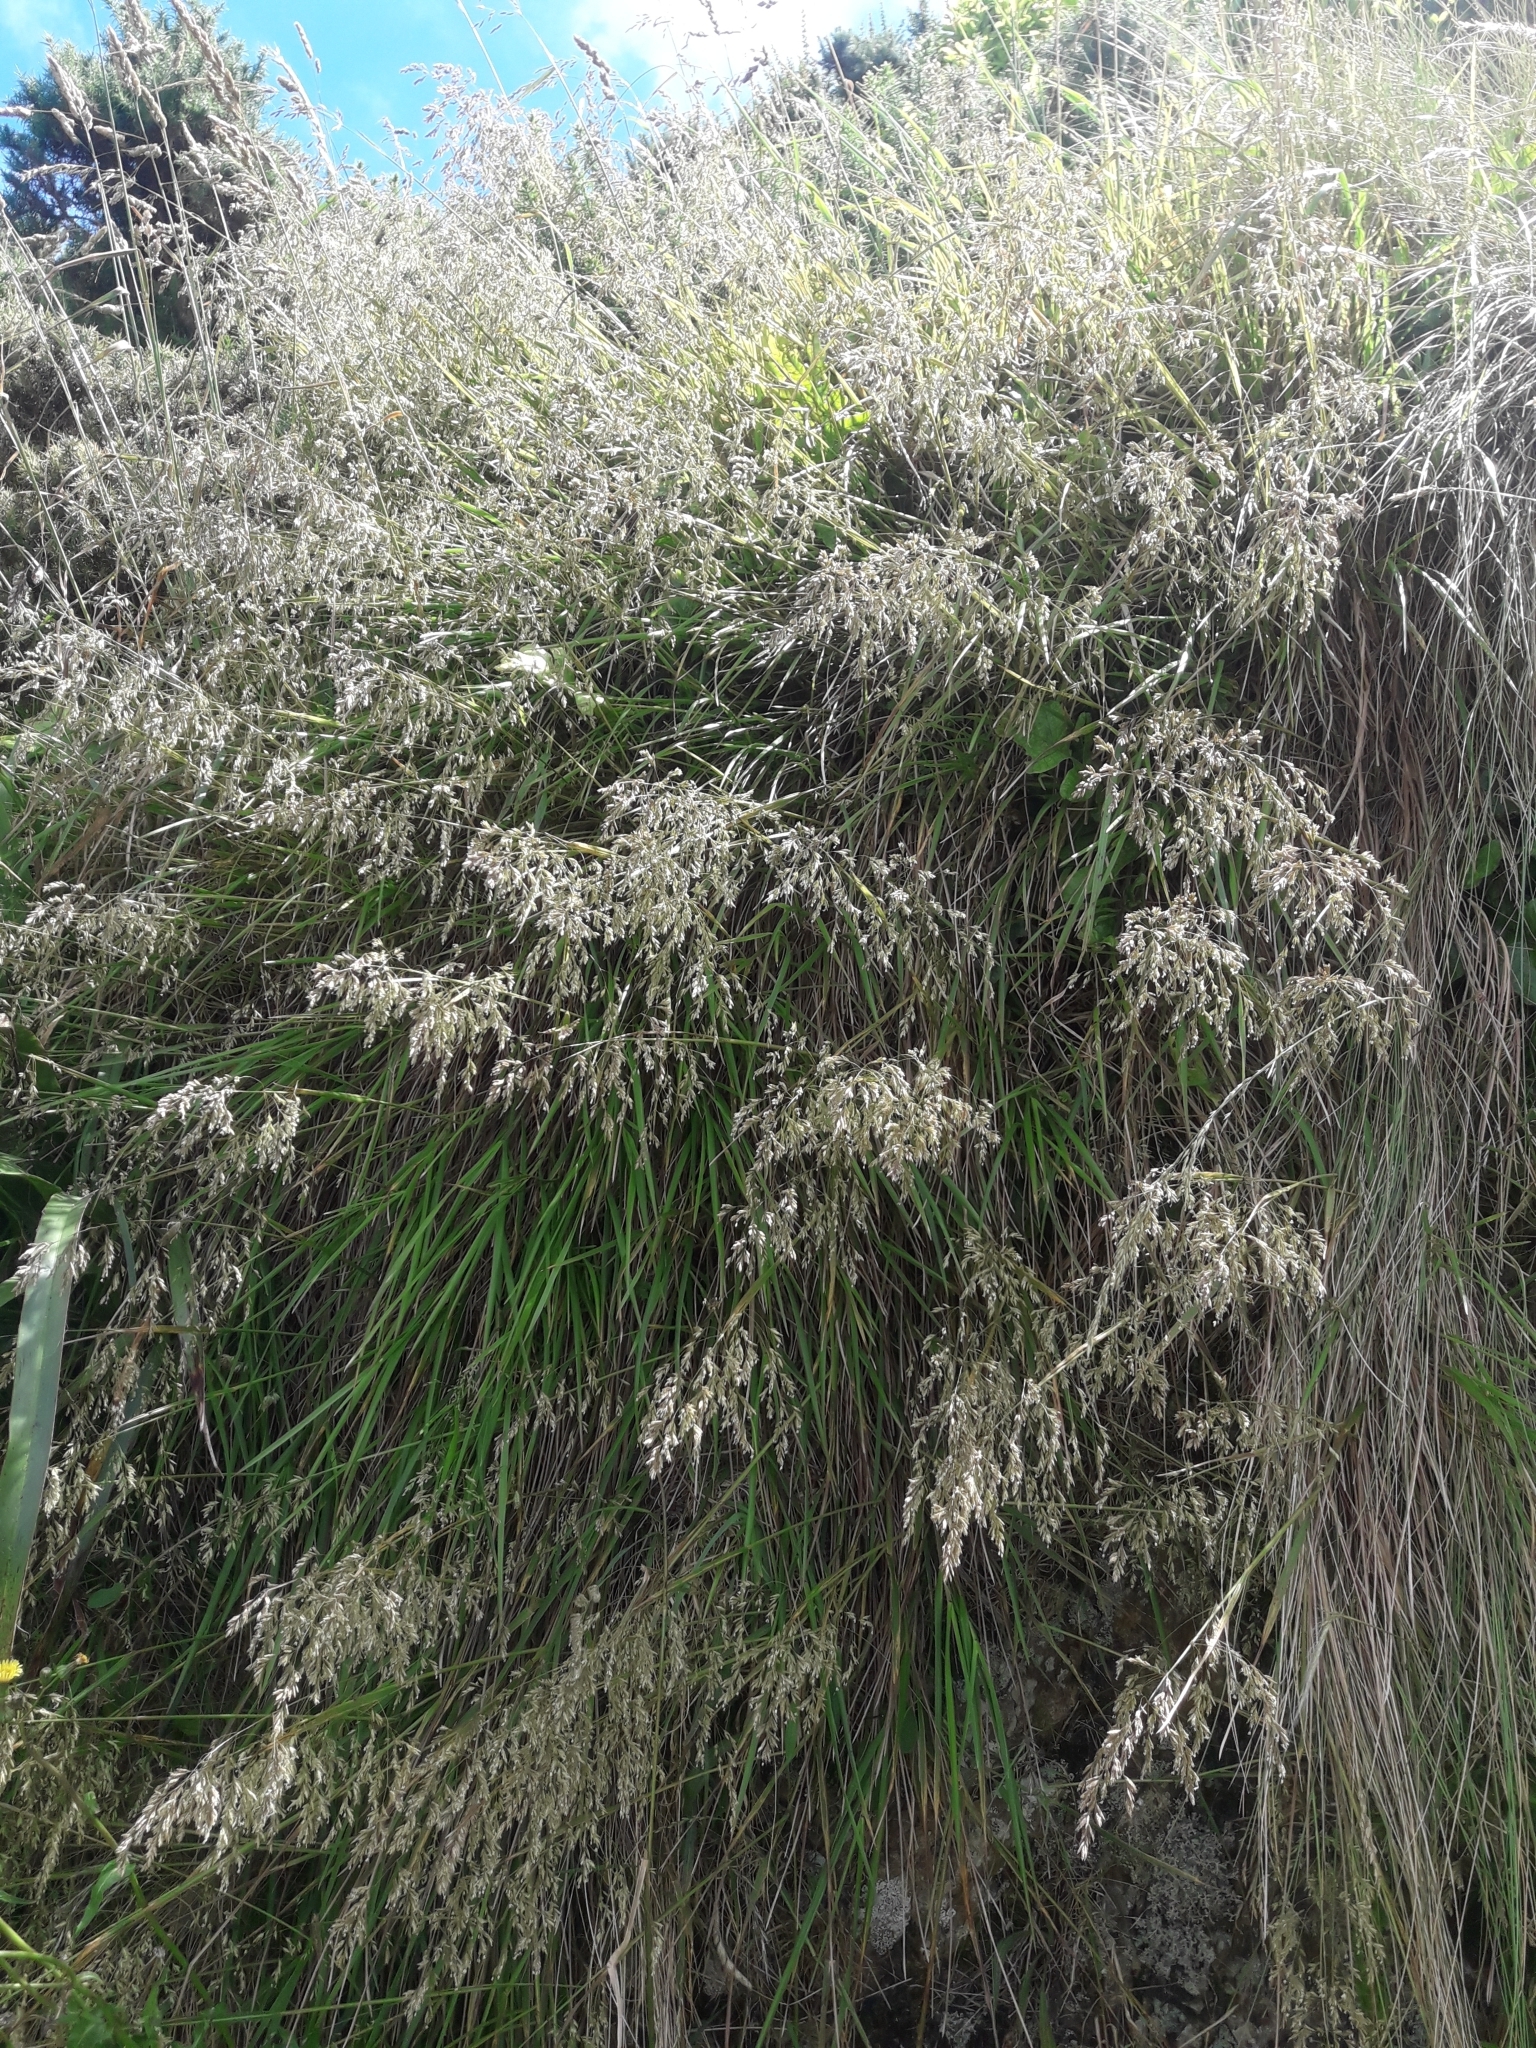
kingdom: Plantae
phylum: Tracheophyta
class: Liliopsida
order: Poales
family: Poaceae
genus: Poa
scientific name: Poa anceps
